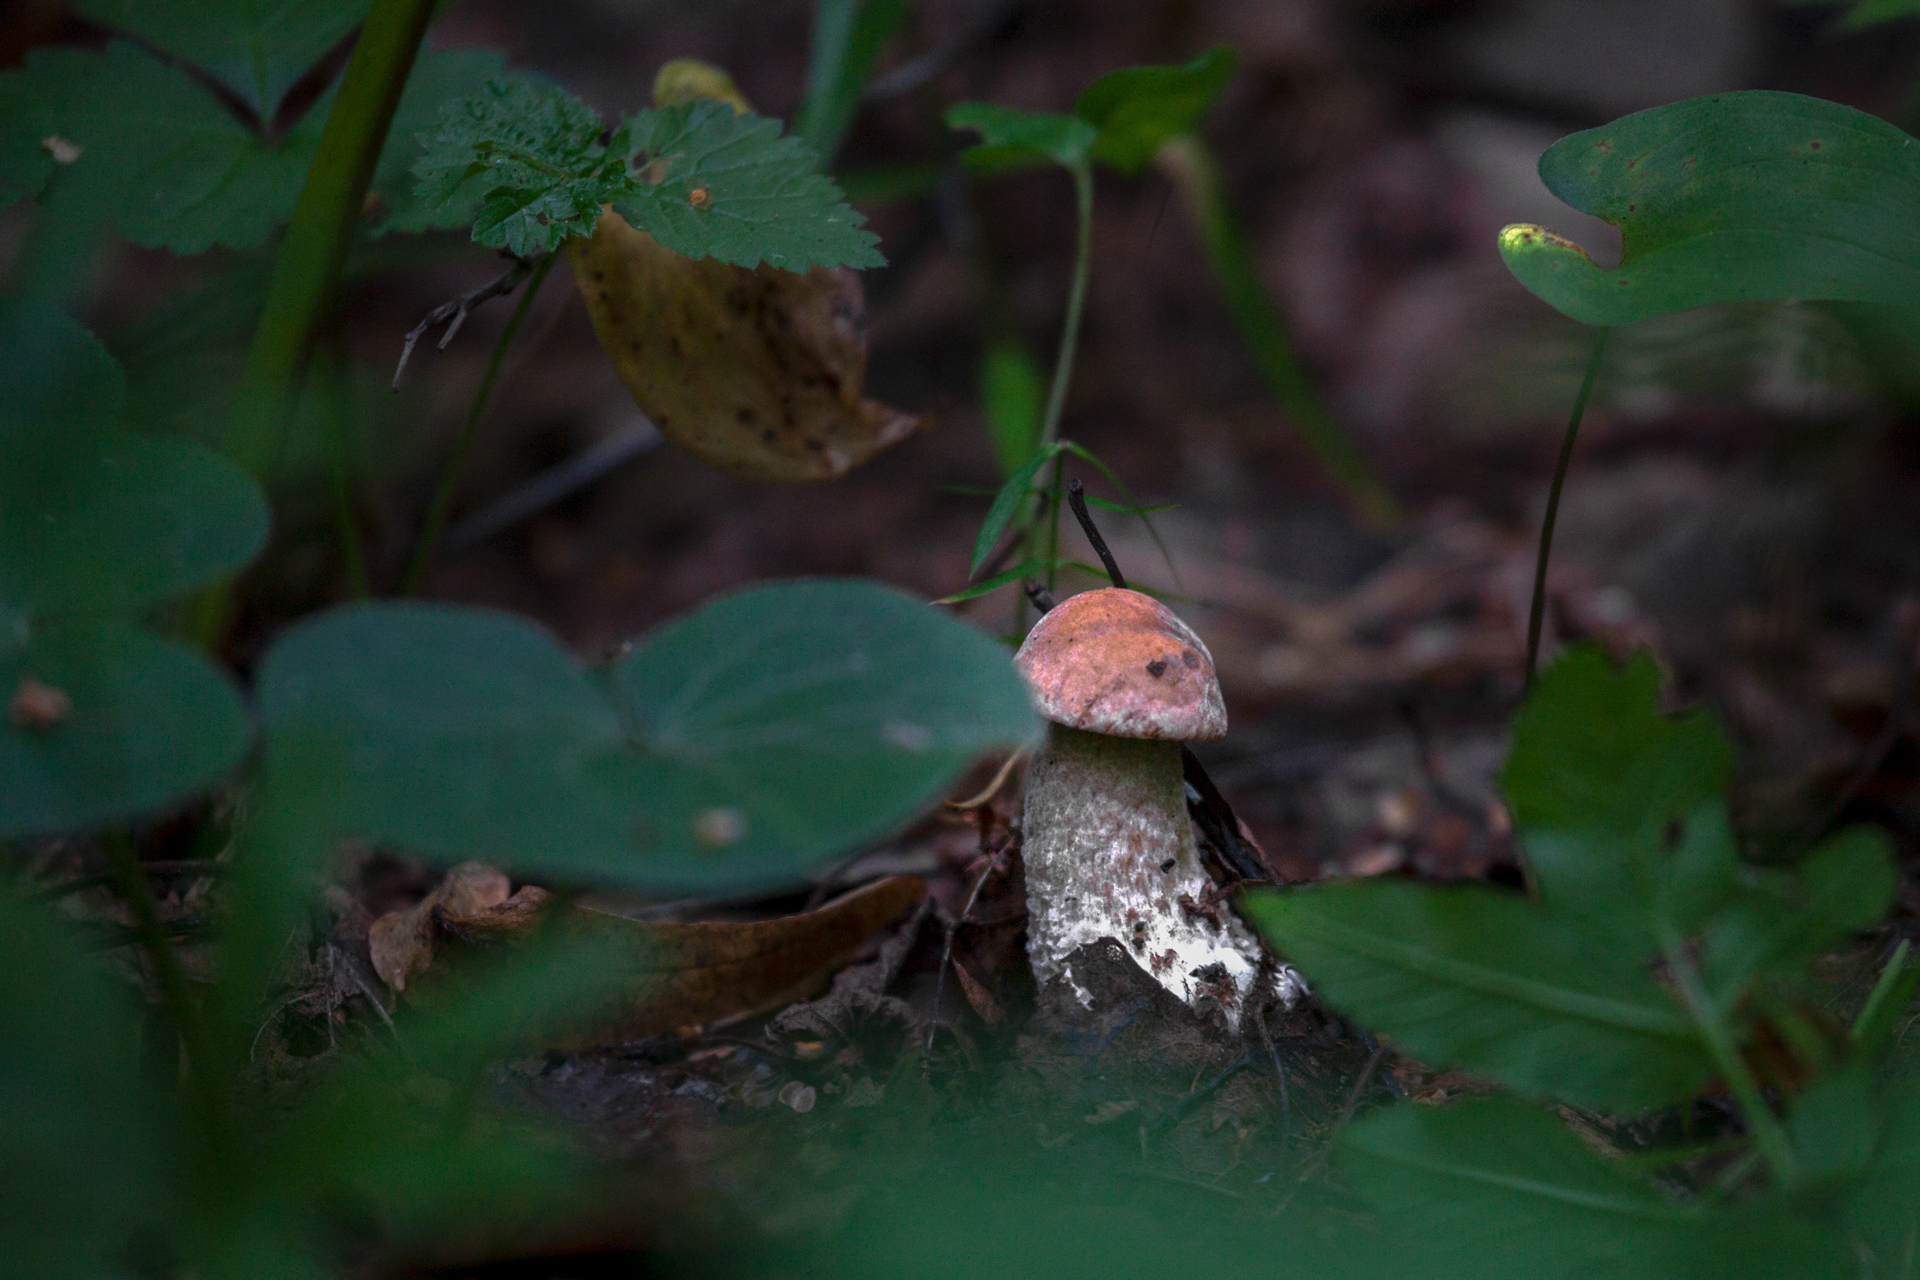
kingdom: Fungi
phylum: Basidiomycota
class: Agaricomycetes
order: Boletales
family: Boletaceae
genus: Leccinum
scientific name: Leccinum aurantiacum
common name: Orange bolete
